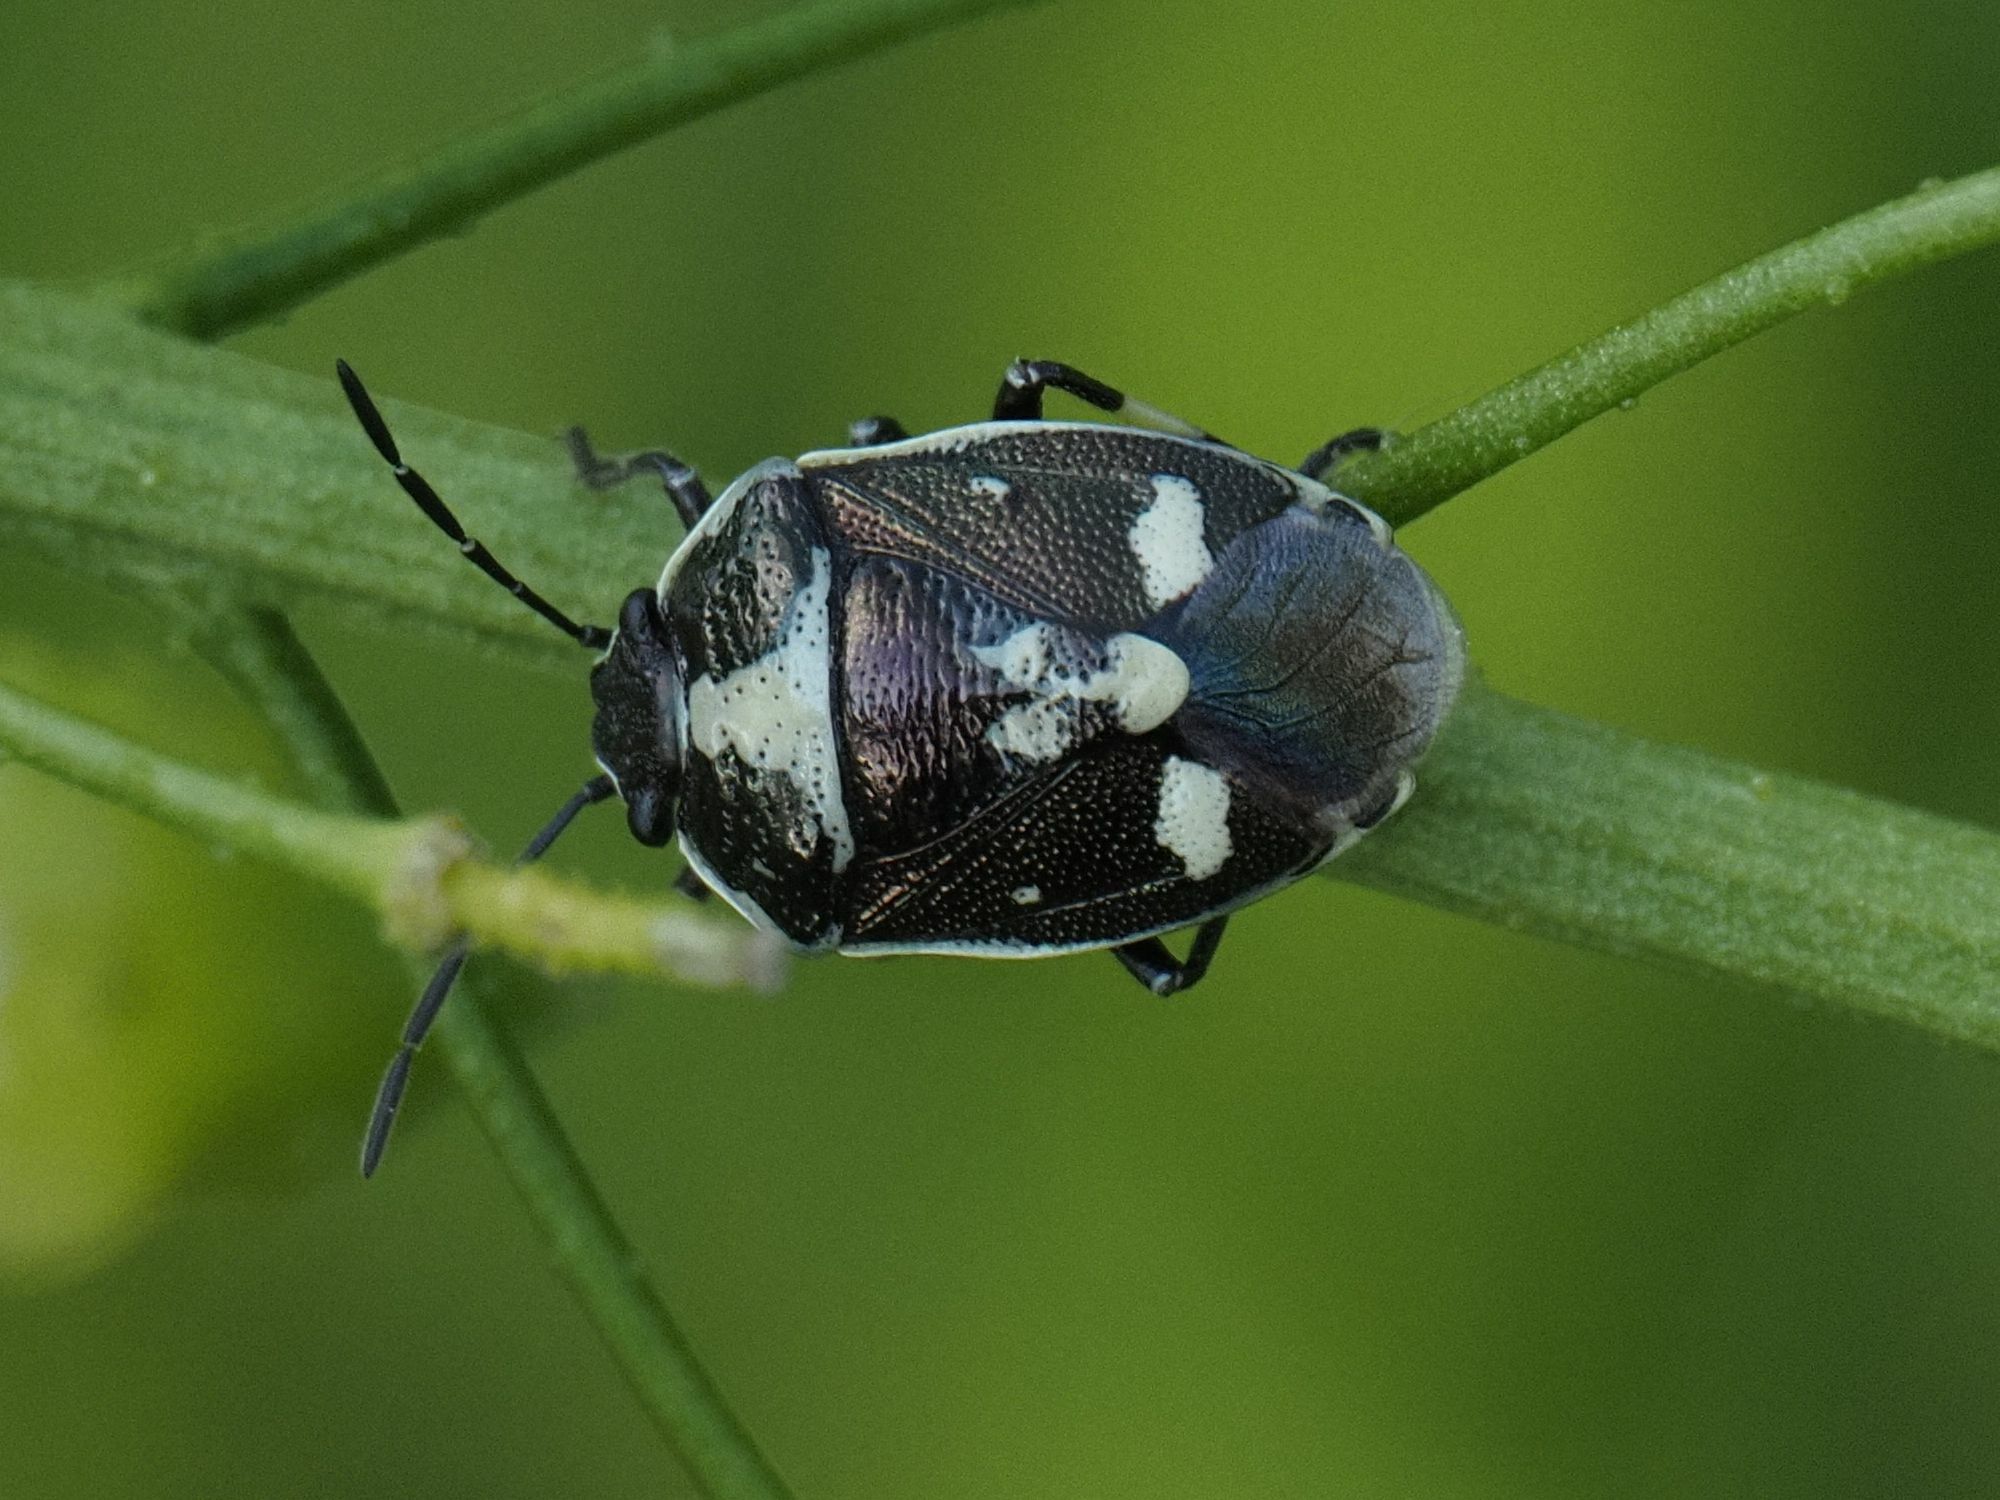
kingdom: Animalia
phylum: Arthropoda
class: Insecta
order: Hemiptera
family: Pentatomidae
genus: Eurydema
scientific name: Eurydema oleracea
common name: Cabbage bug
